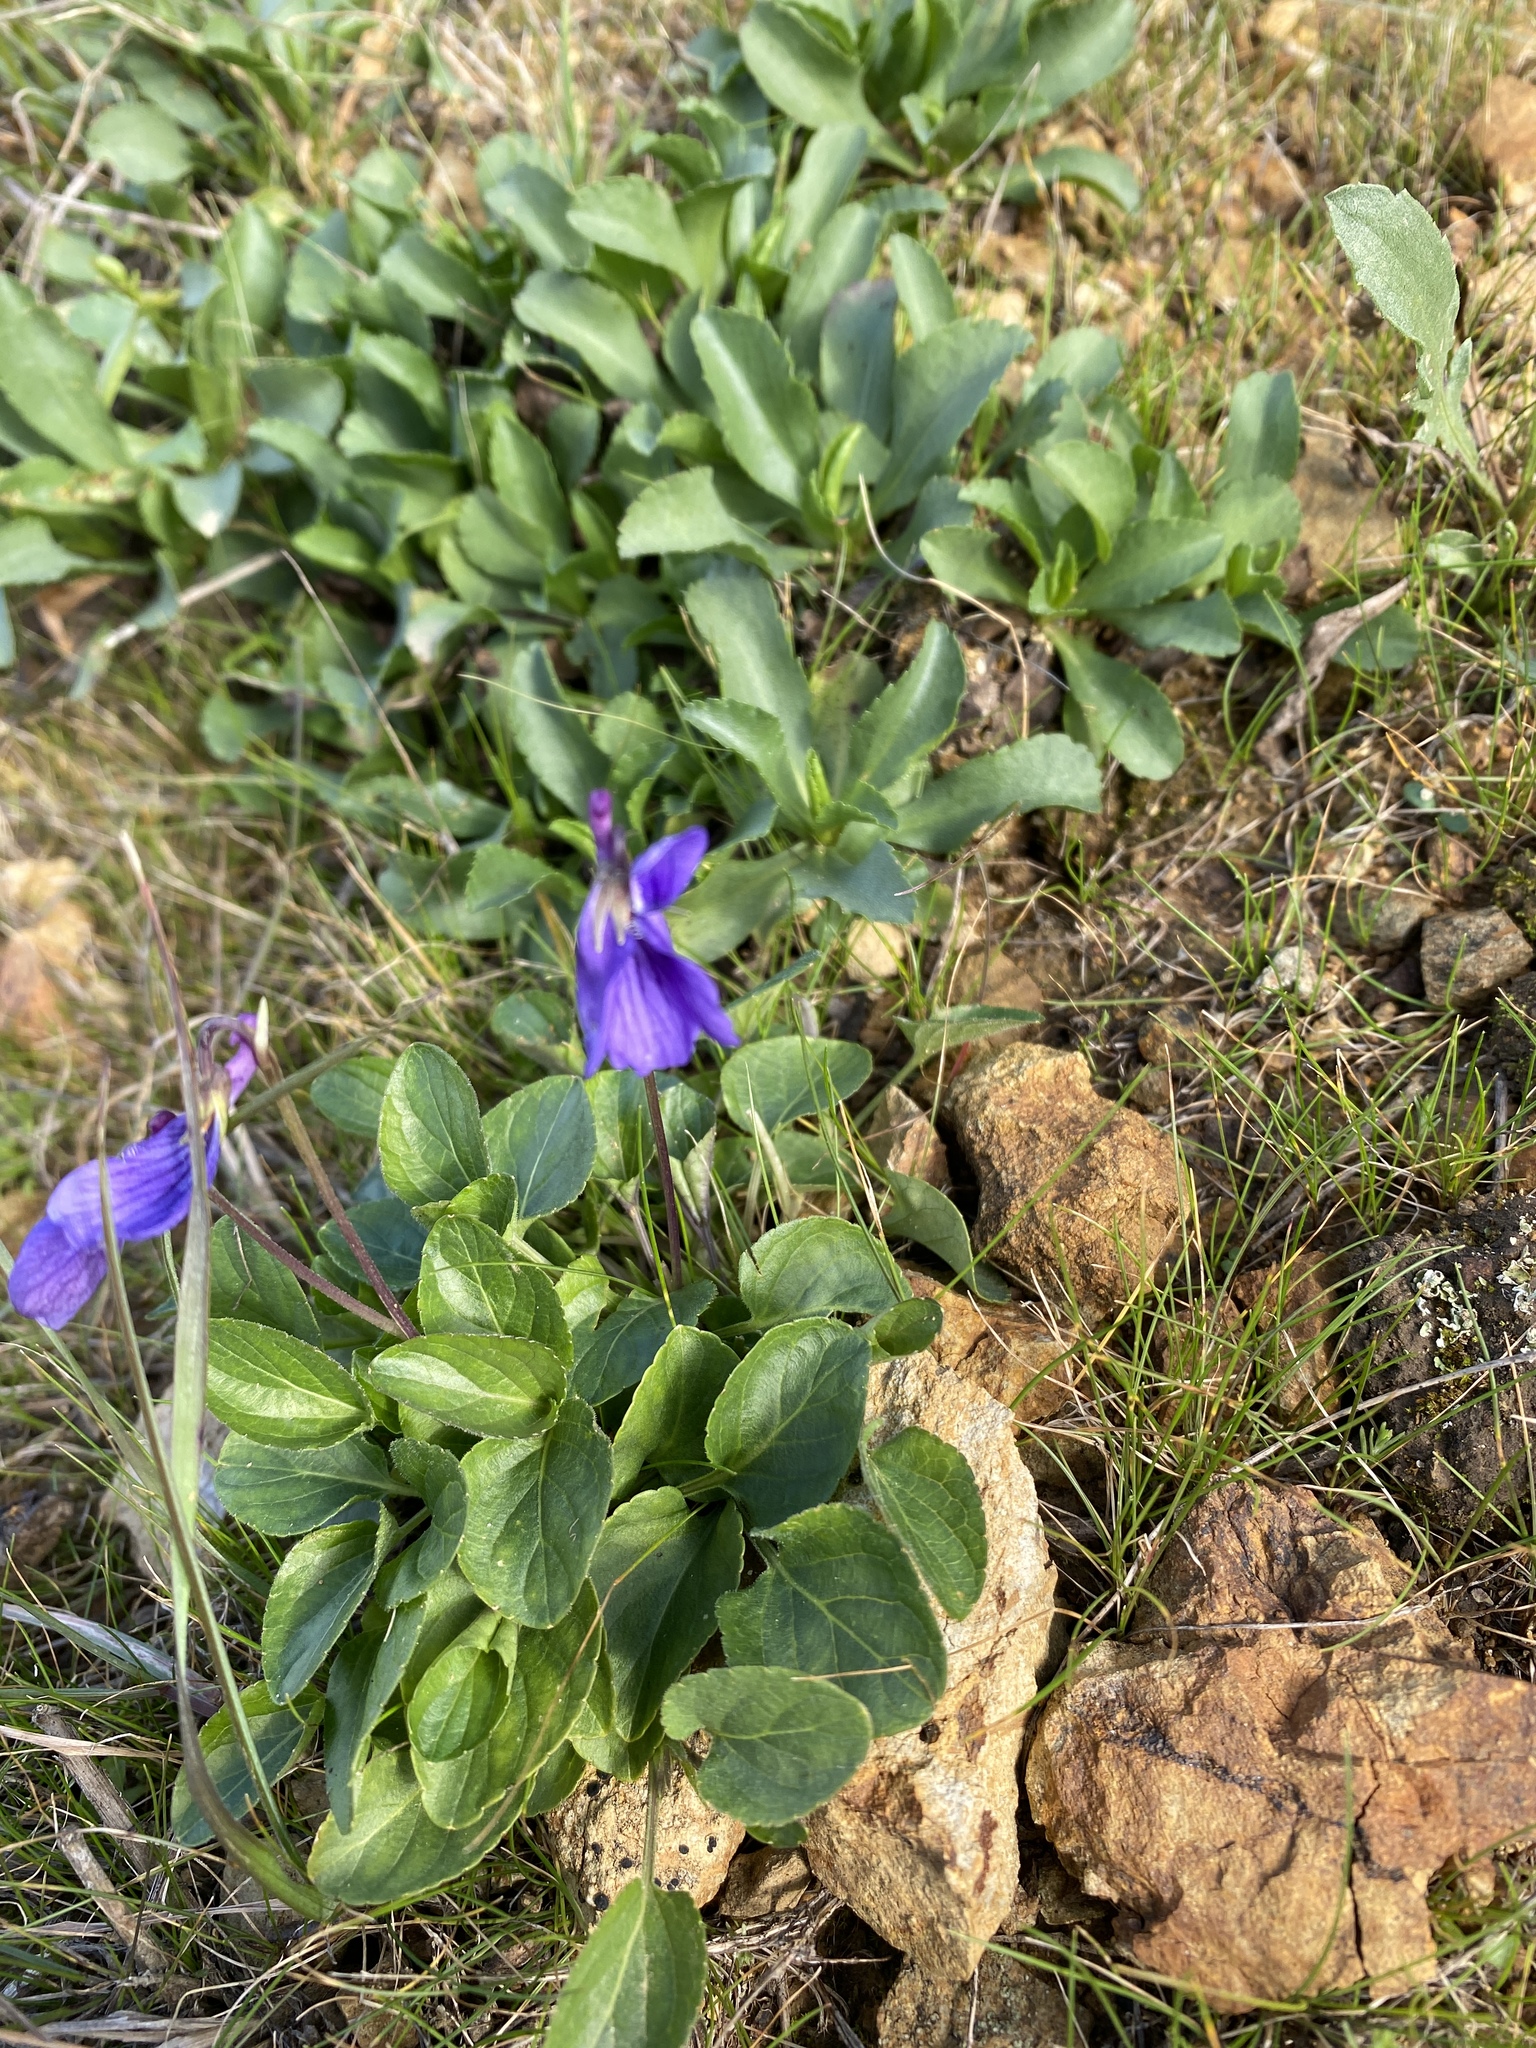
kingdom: Plantae
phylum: Tracheophyta
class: Magnoliopsida
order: Malpighiales
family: Violaceae
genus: Viola
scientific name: Viola adunca
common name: Sand violet
